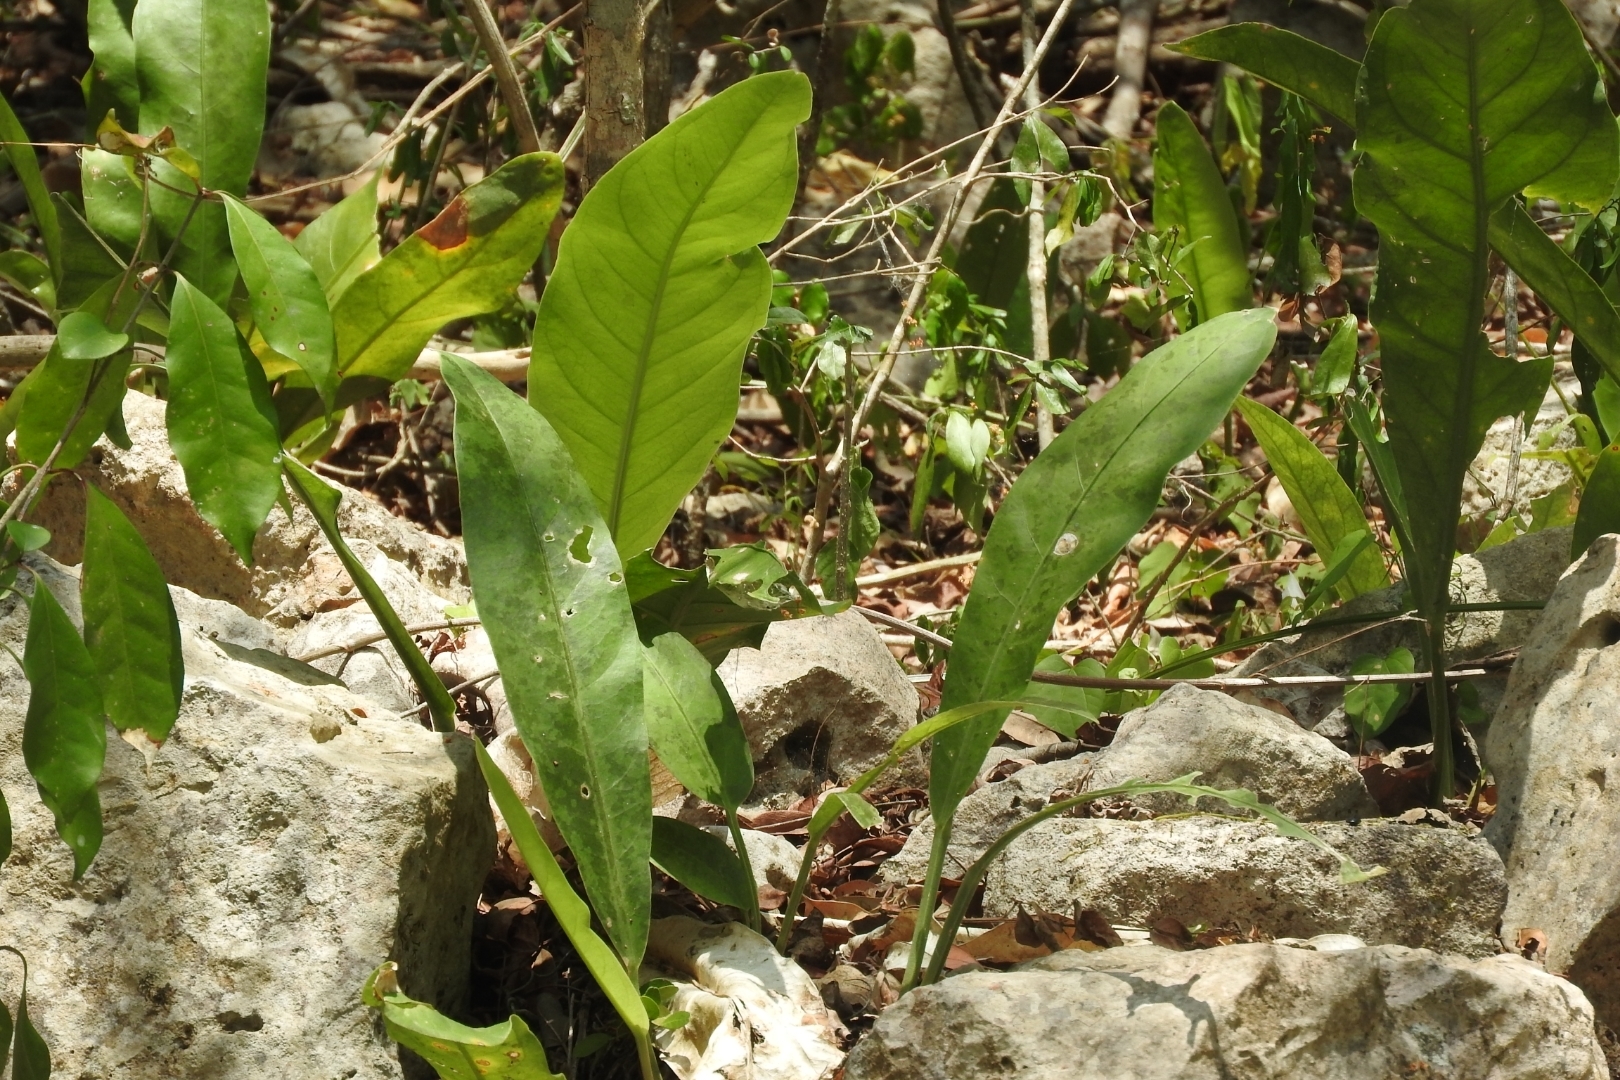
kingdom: Plantae
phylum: Tracheophyta
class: Liliopsida
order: Alismatales
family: Araceae
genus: Anthurium
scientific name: Anthurium schlechtendalii
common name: Laceleaf
